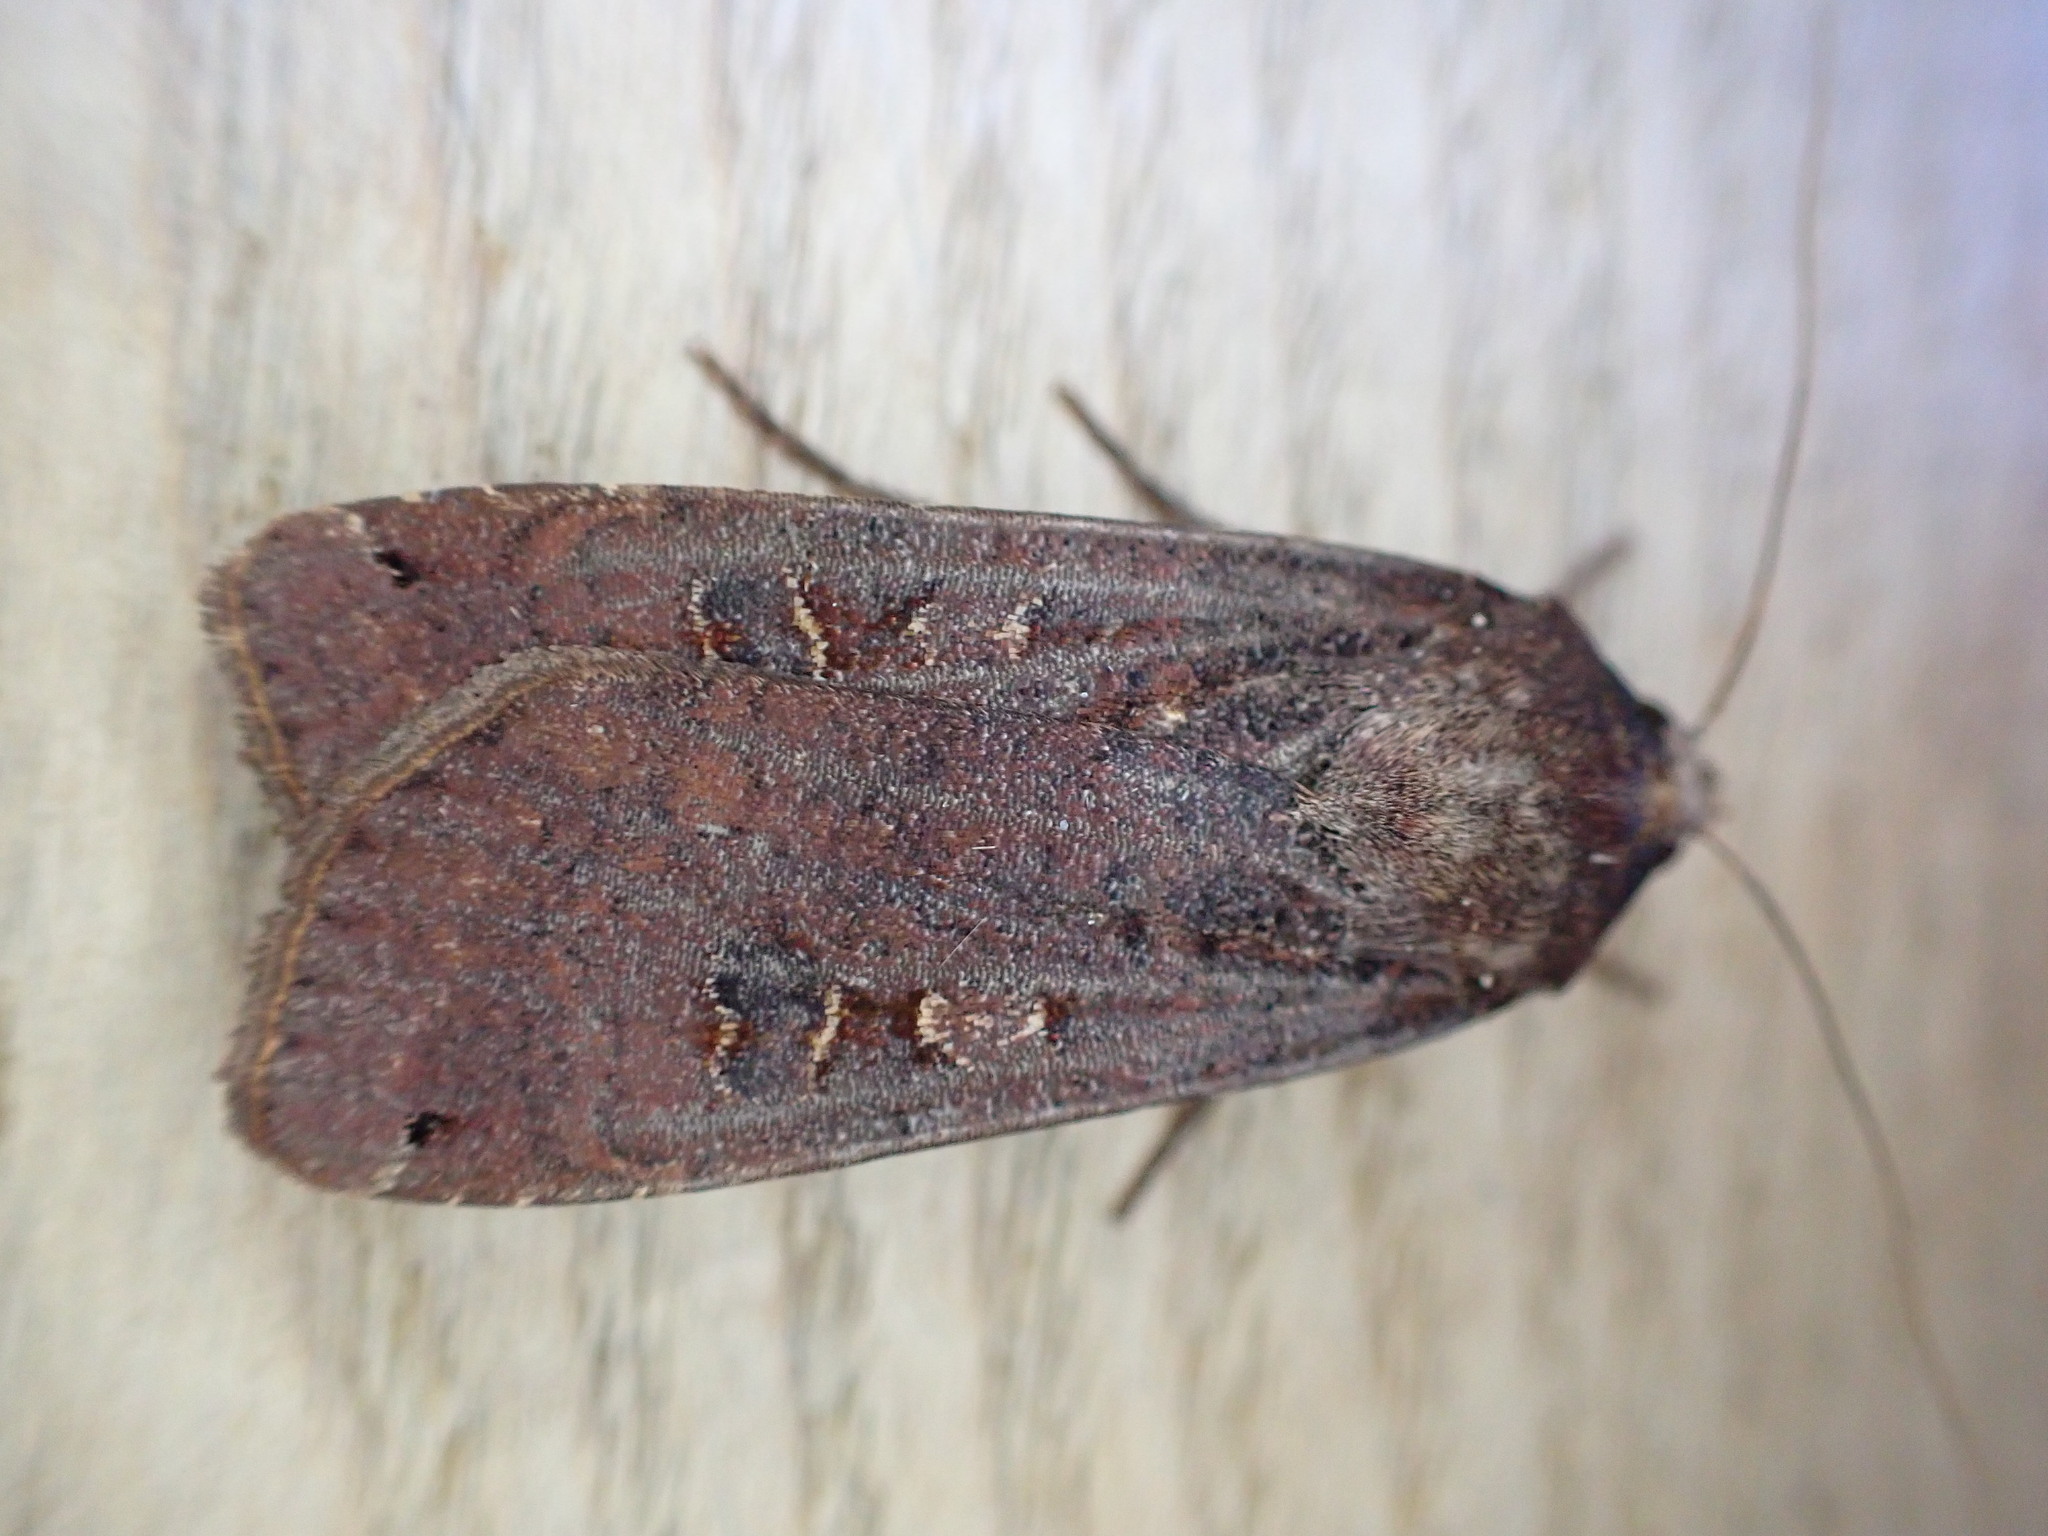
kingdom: Animalia
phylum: Arthropoda
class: Insecta
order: Lepidoptera
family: Noctuidae
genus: Noctua
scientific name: Noctua pronuba
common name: Large yellow underwing
